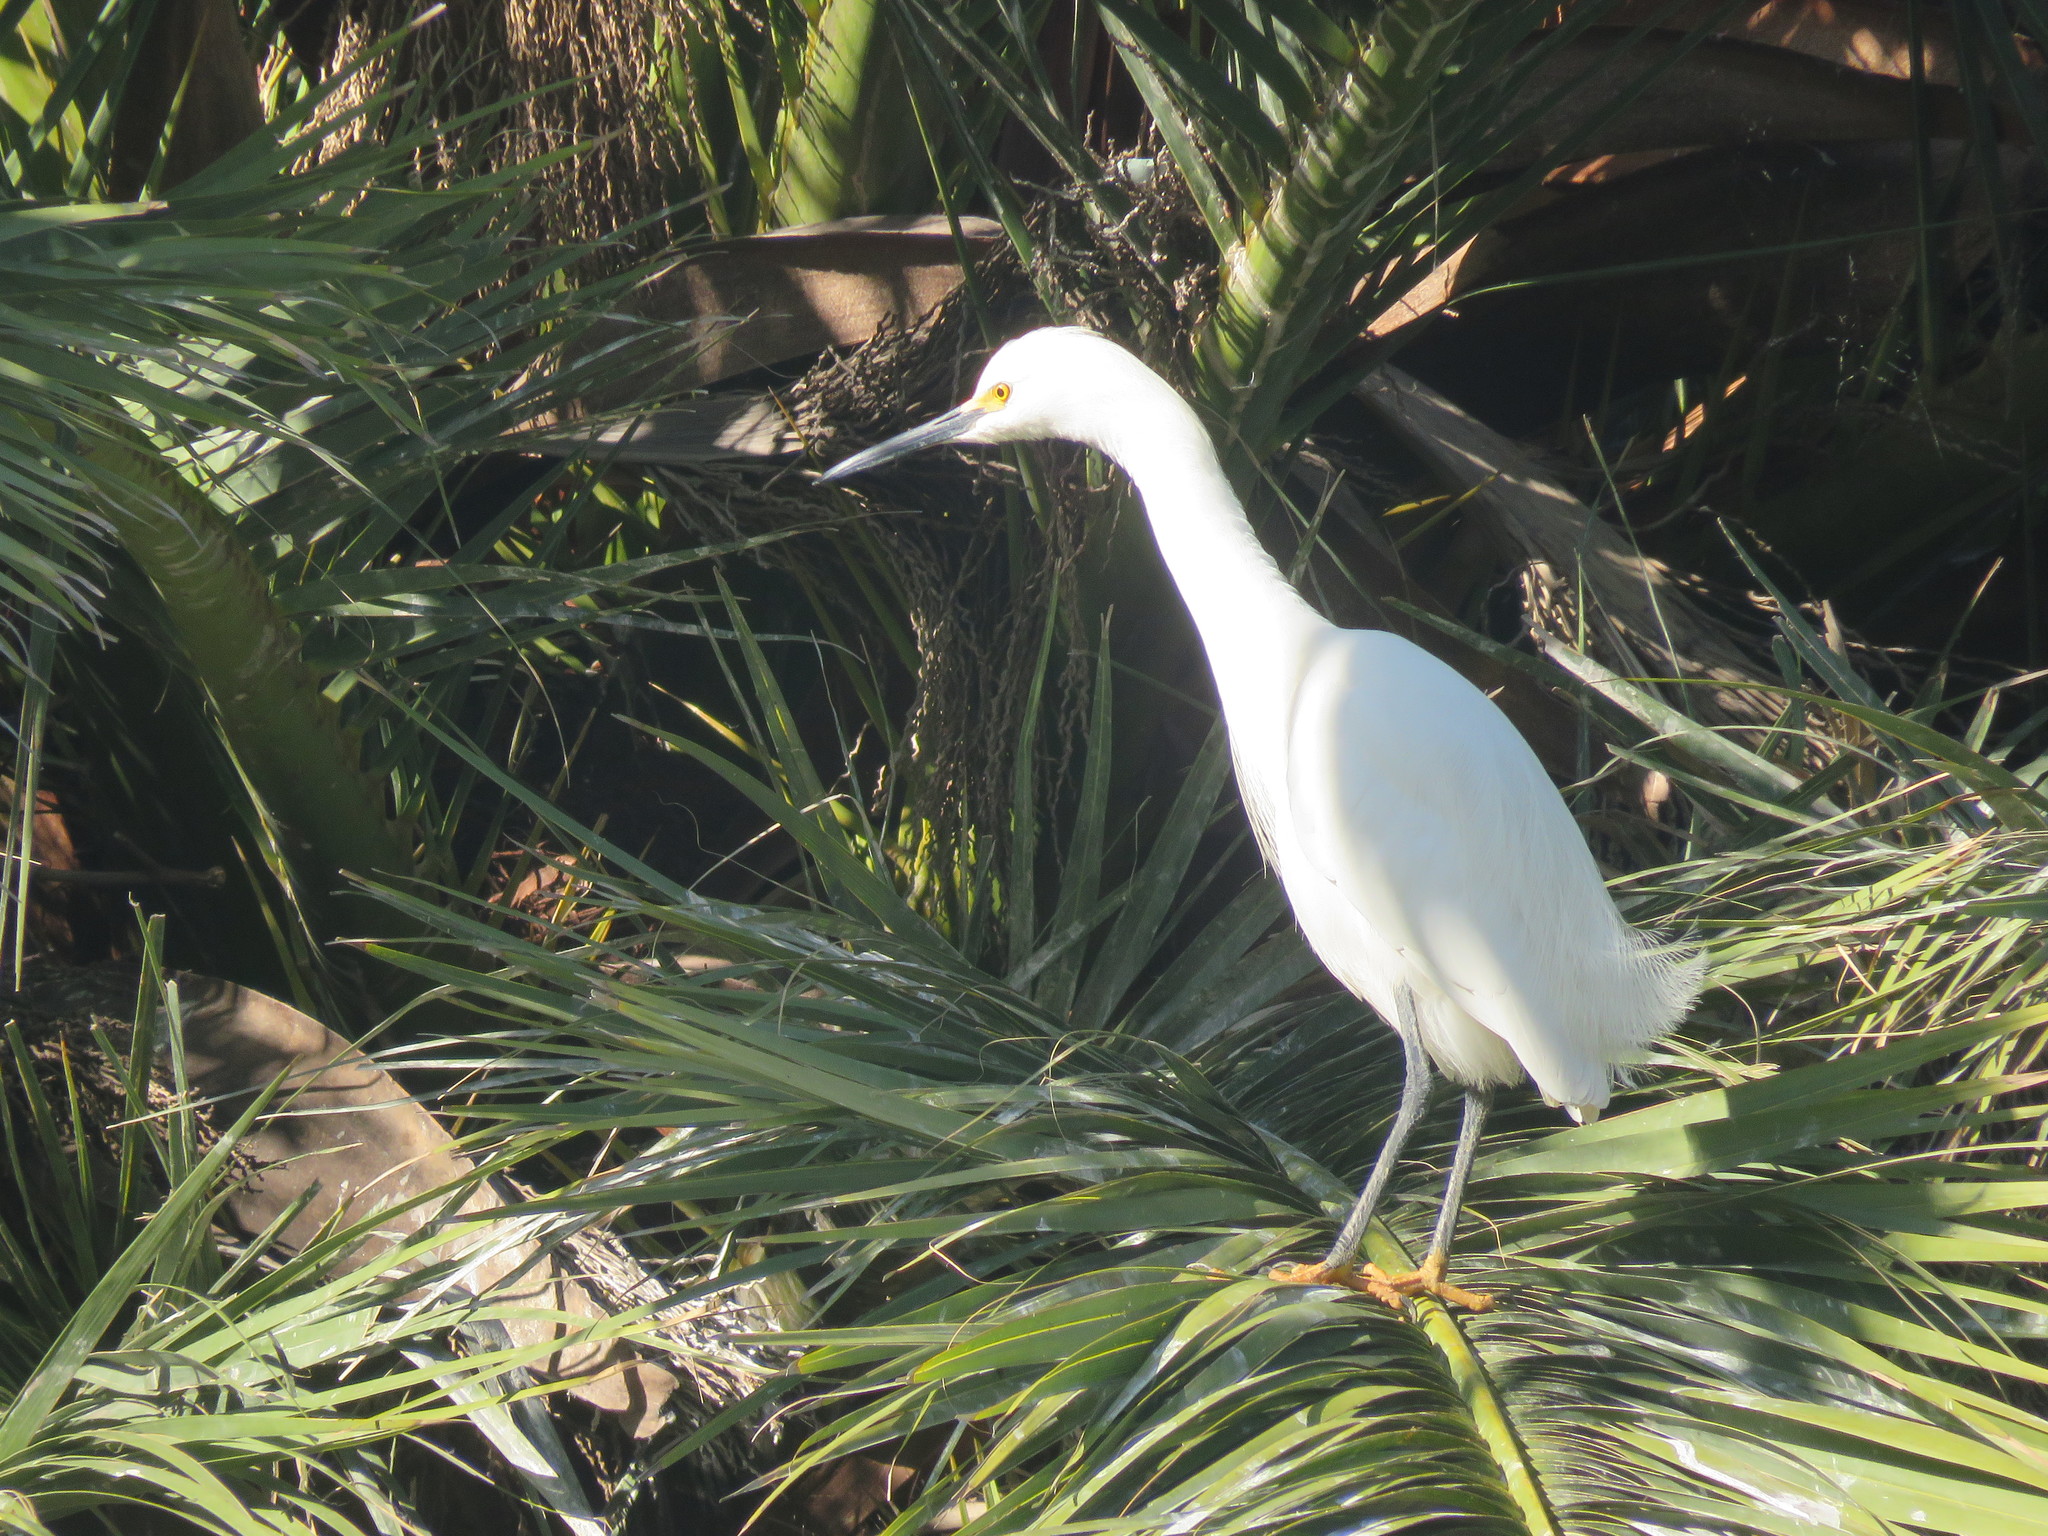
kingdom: Animalia
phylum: Chordata
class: Aves
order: Pelecaniformes
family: Ardeidae
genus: Egretta
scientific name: Egretta thula
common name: Snowy egret
